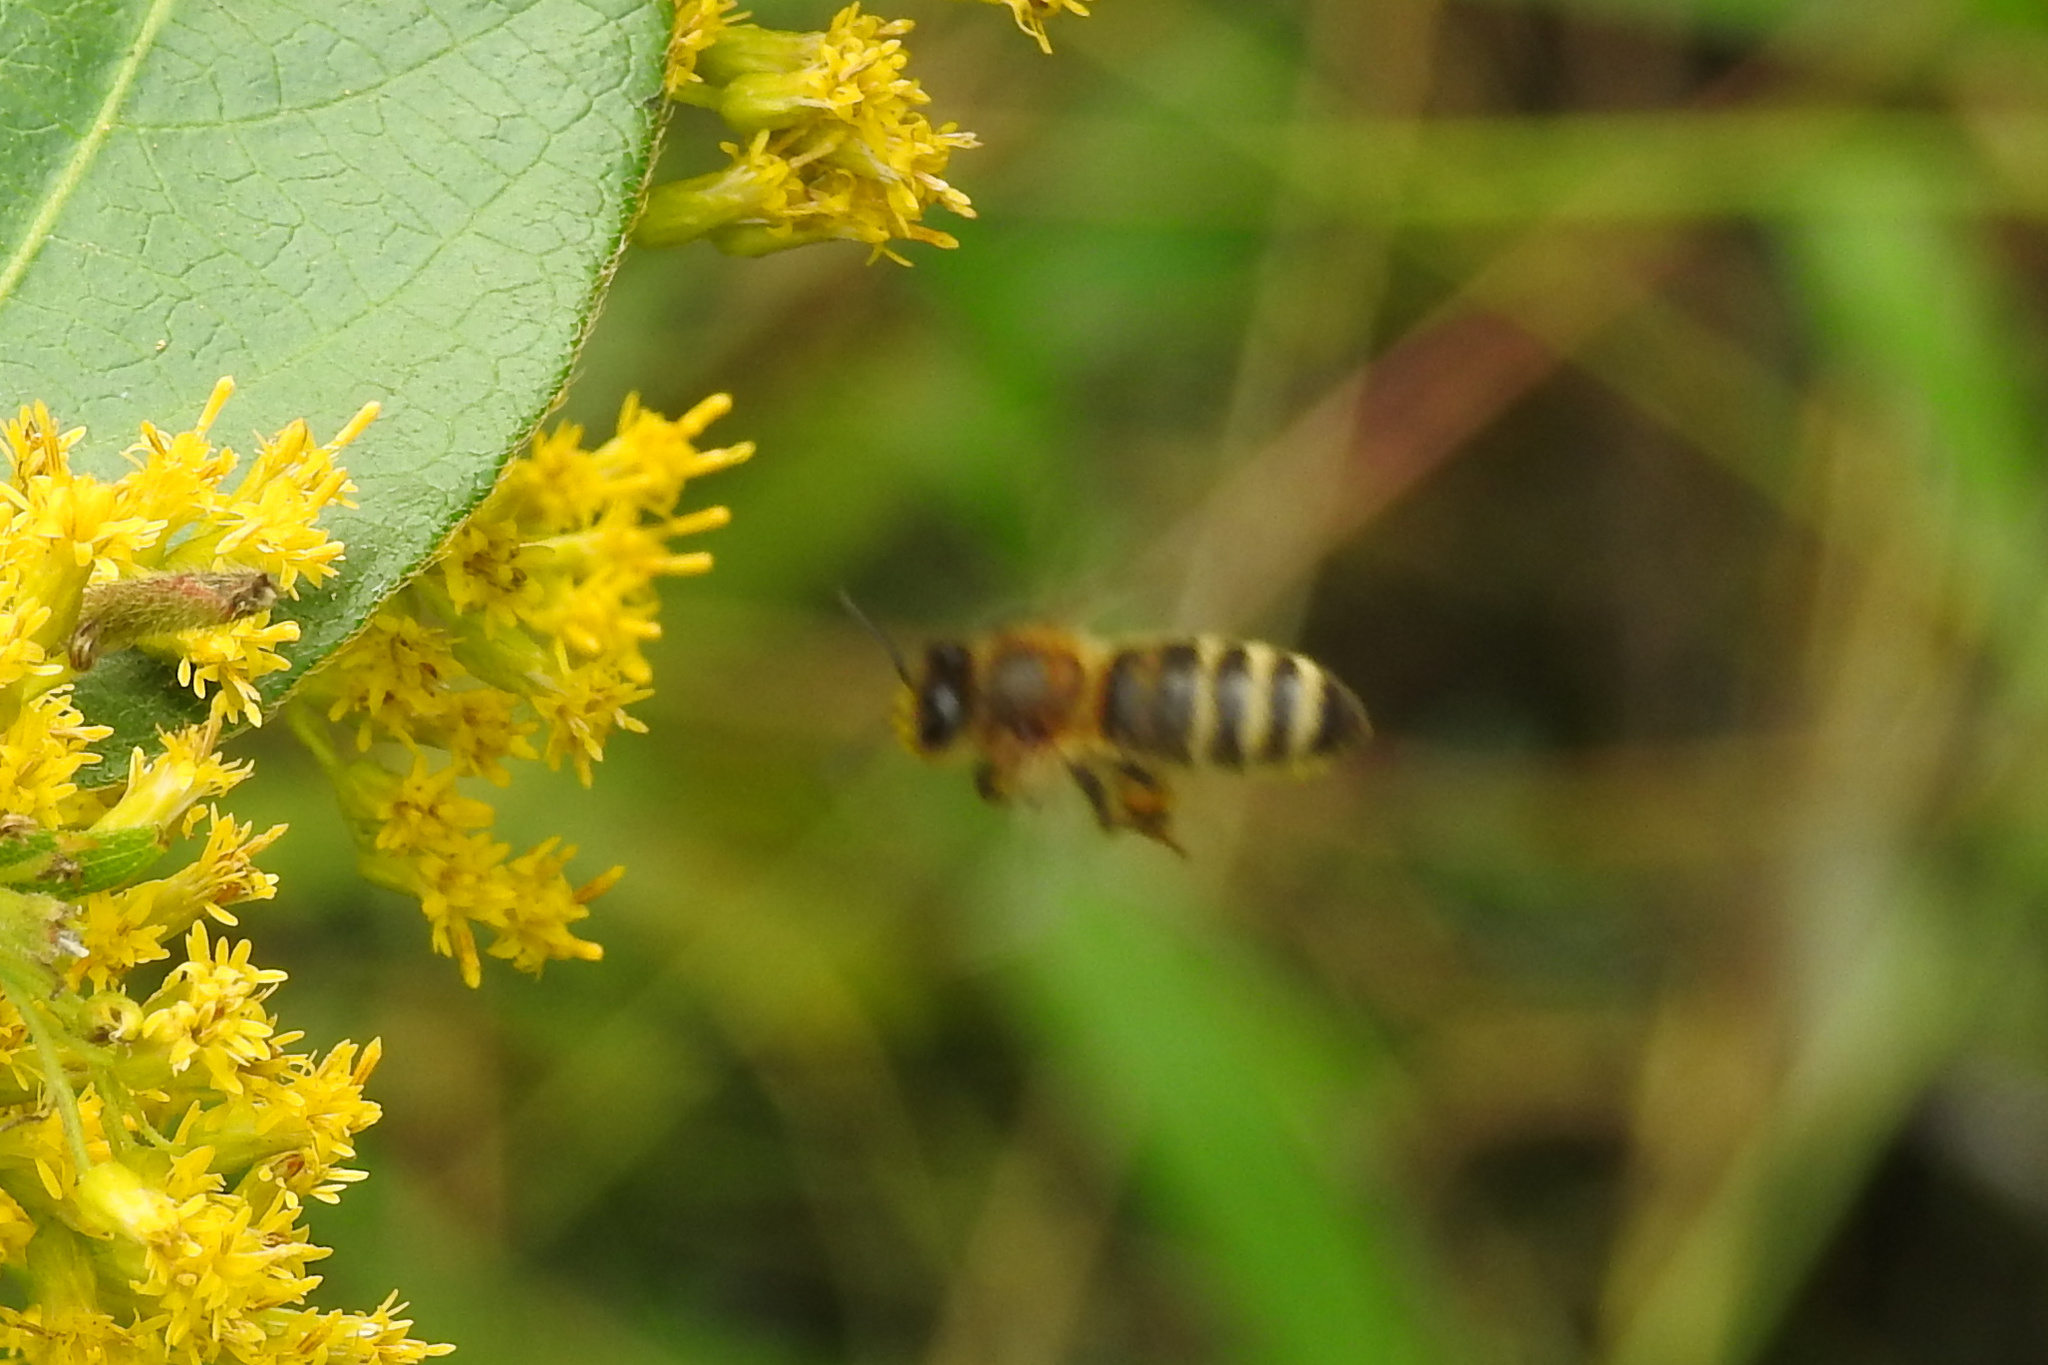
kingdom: Animalia
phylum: Arthropoda
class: Insecta
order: Hymenoptera
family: Apidae
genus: Apis
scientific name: Apis mellifera
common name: Honey bee
